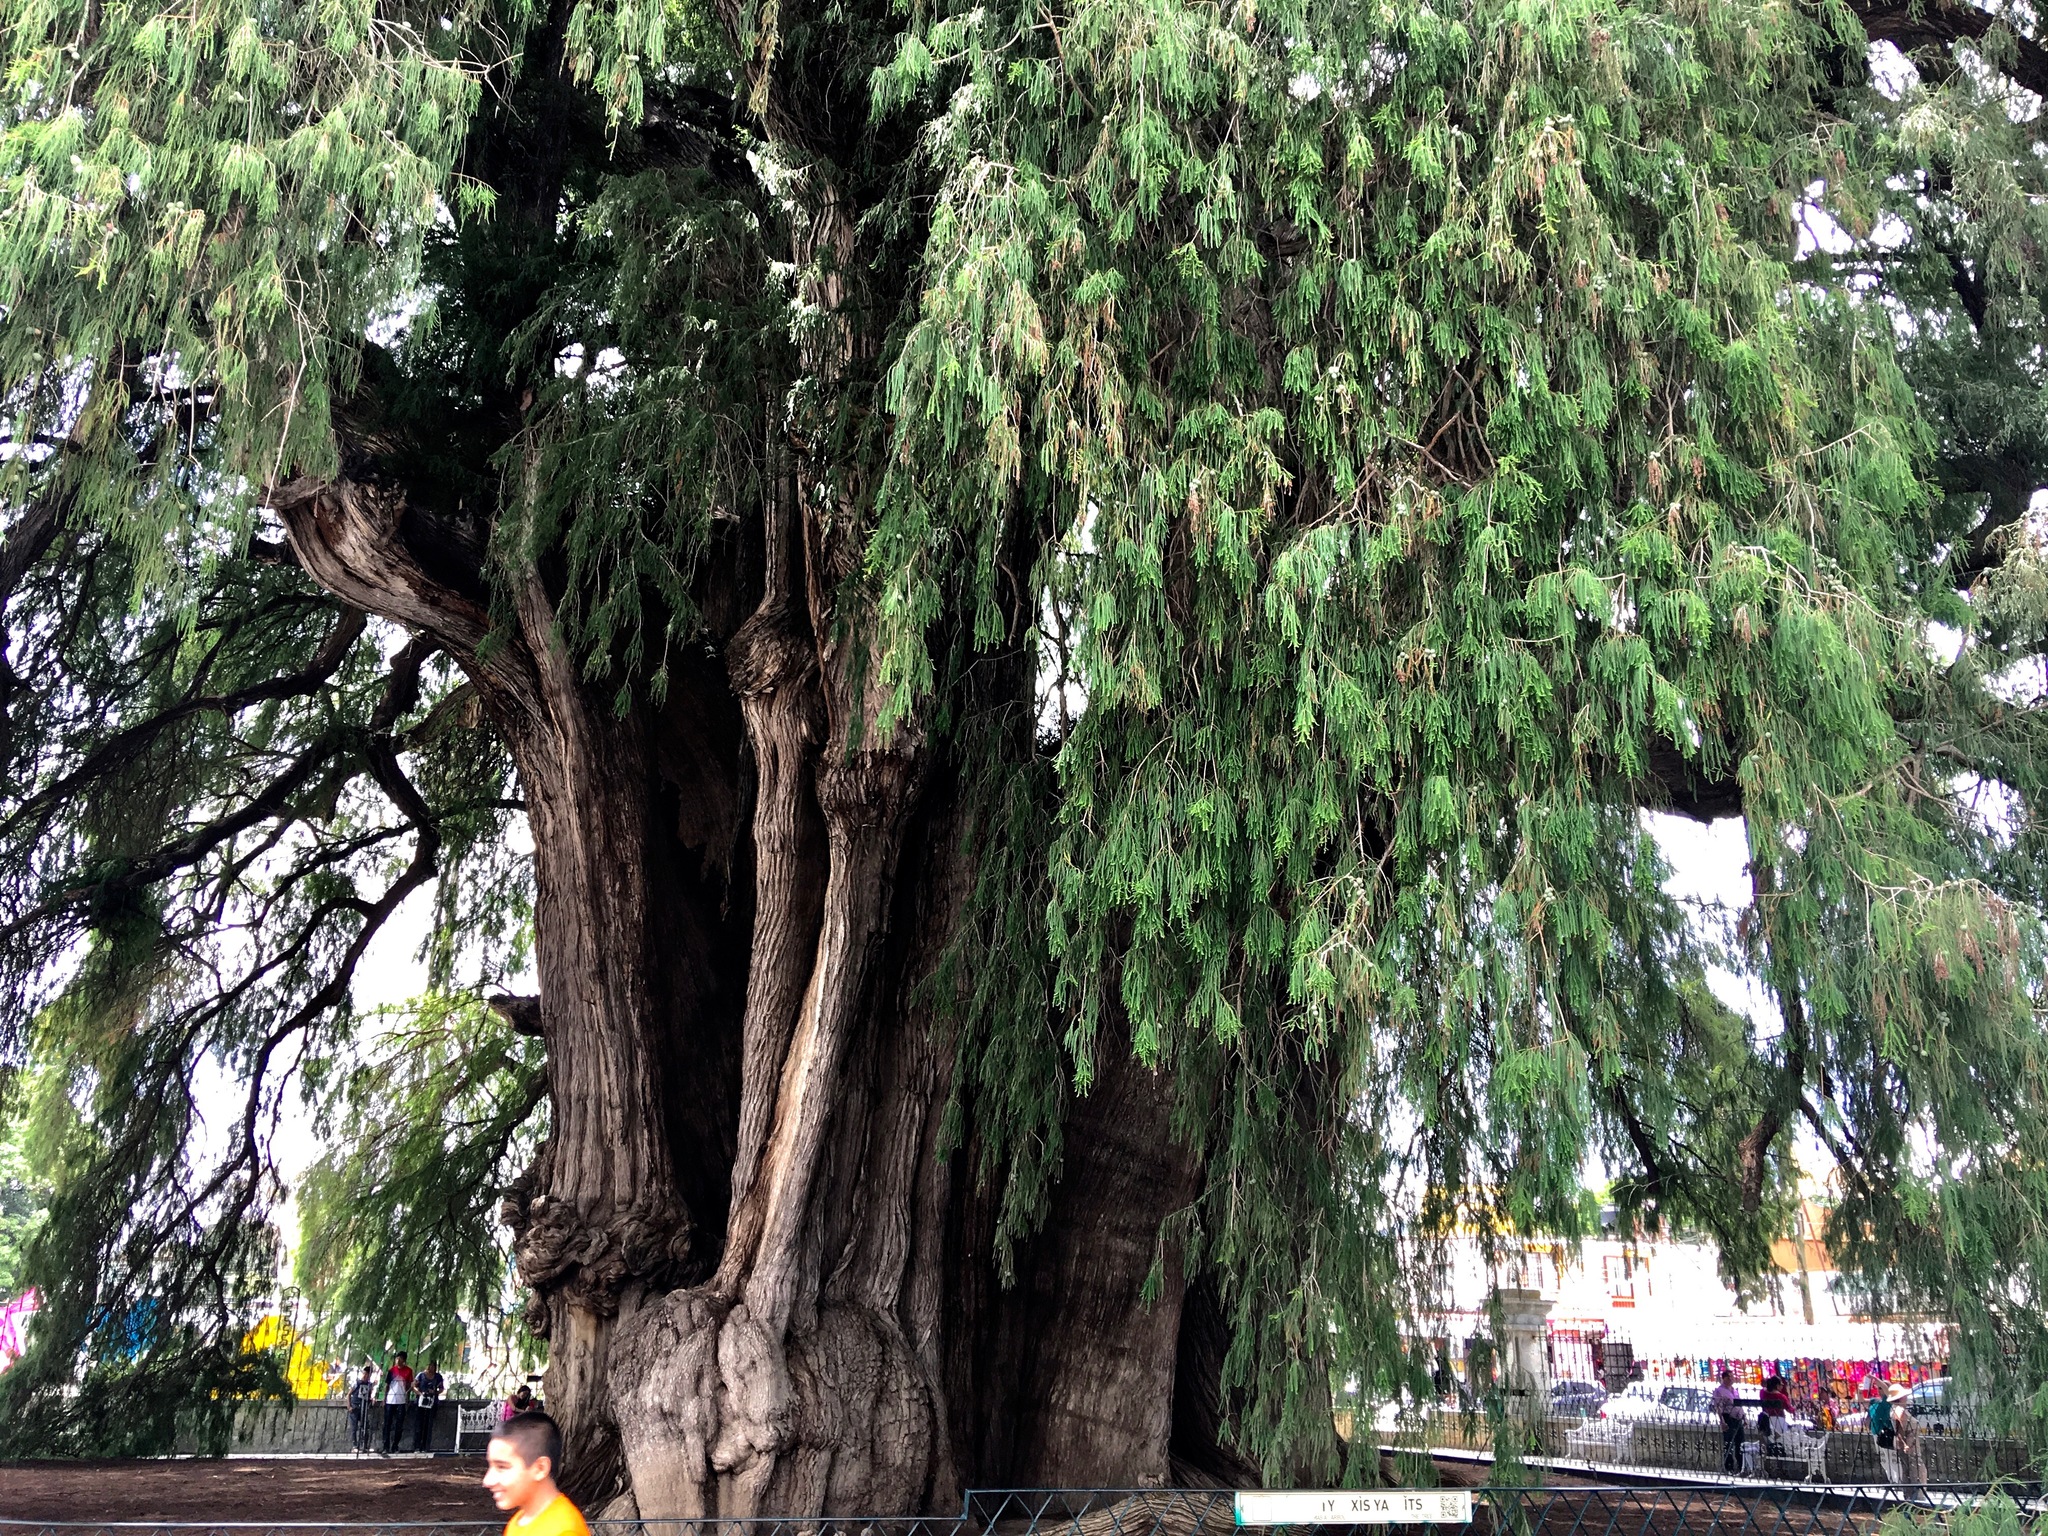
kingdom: Plantae
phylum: Tracheophyta
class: Pinopsida
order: Pinales
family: Cupressaceae
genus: Taxodium
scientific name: Taxodium mucronatum
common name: Montezume bald cypress
